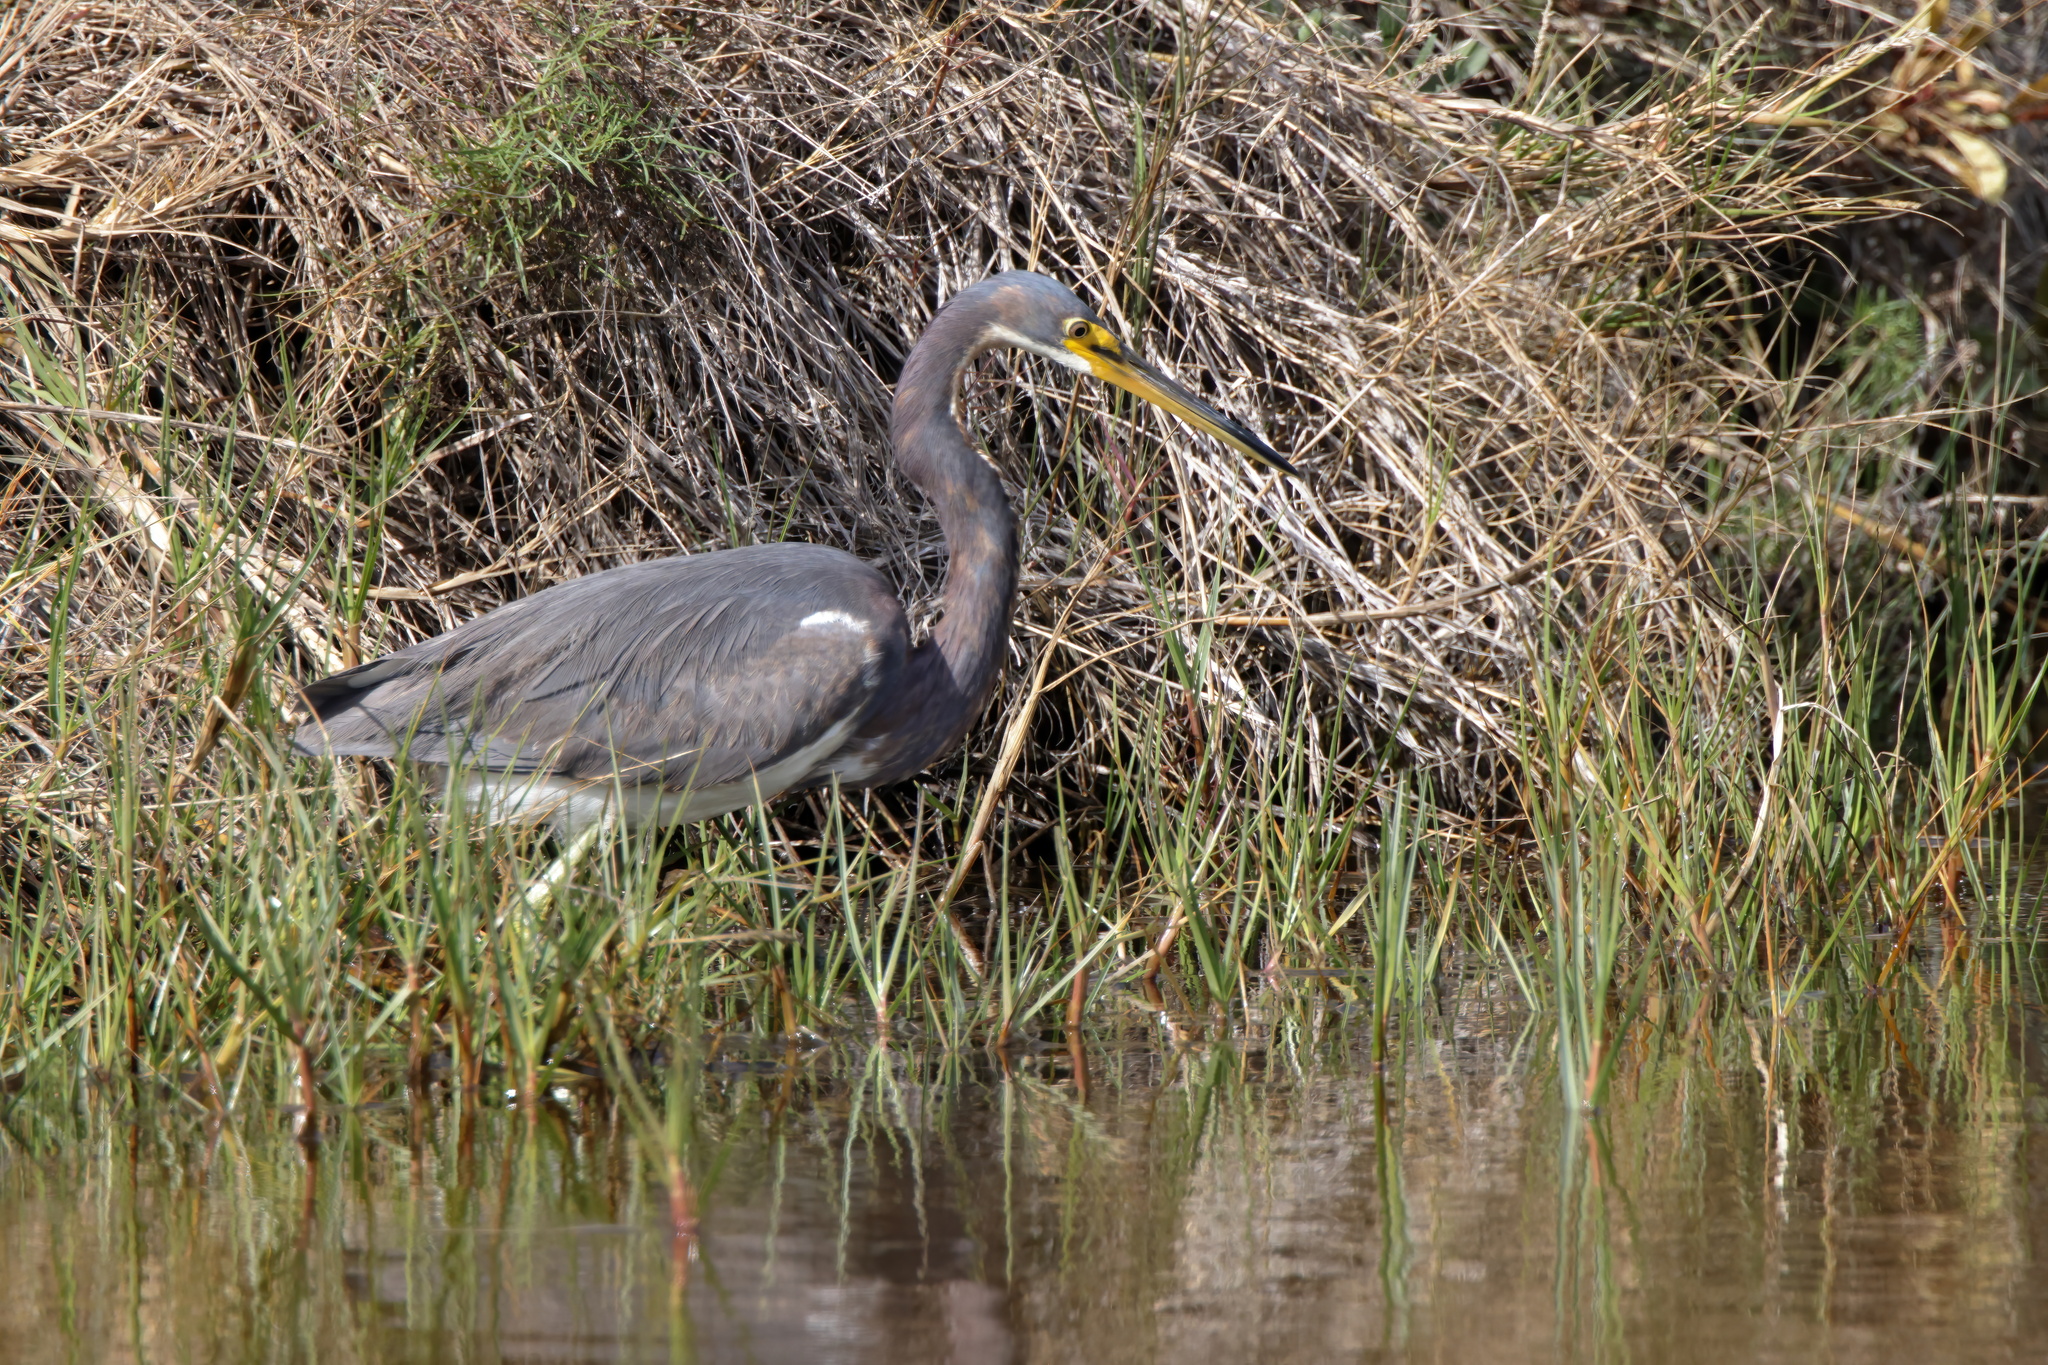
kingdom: Animalia
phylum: Chordata
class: Aves
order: Pelecaniformes
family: Ardeidae
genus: Egretta
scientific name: Egretta tricolor
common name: Tricolored heron
